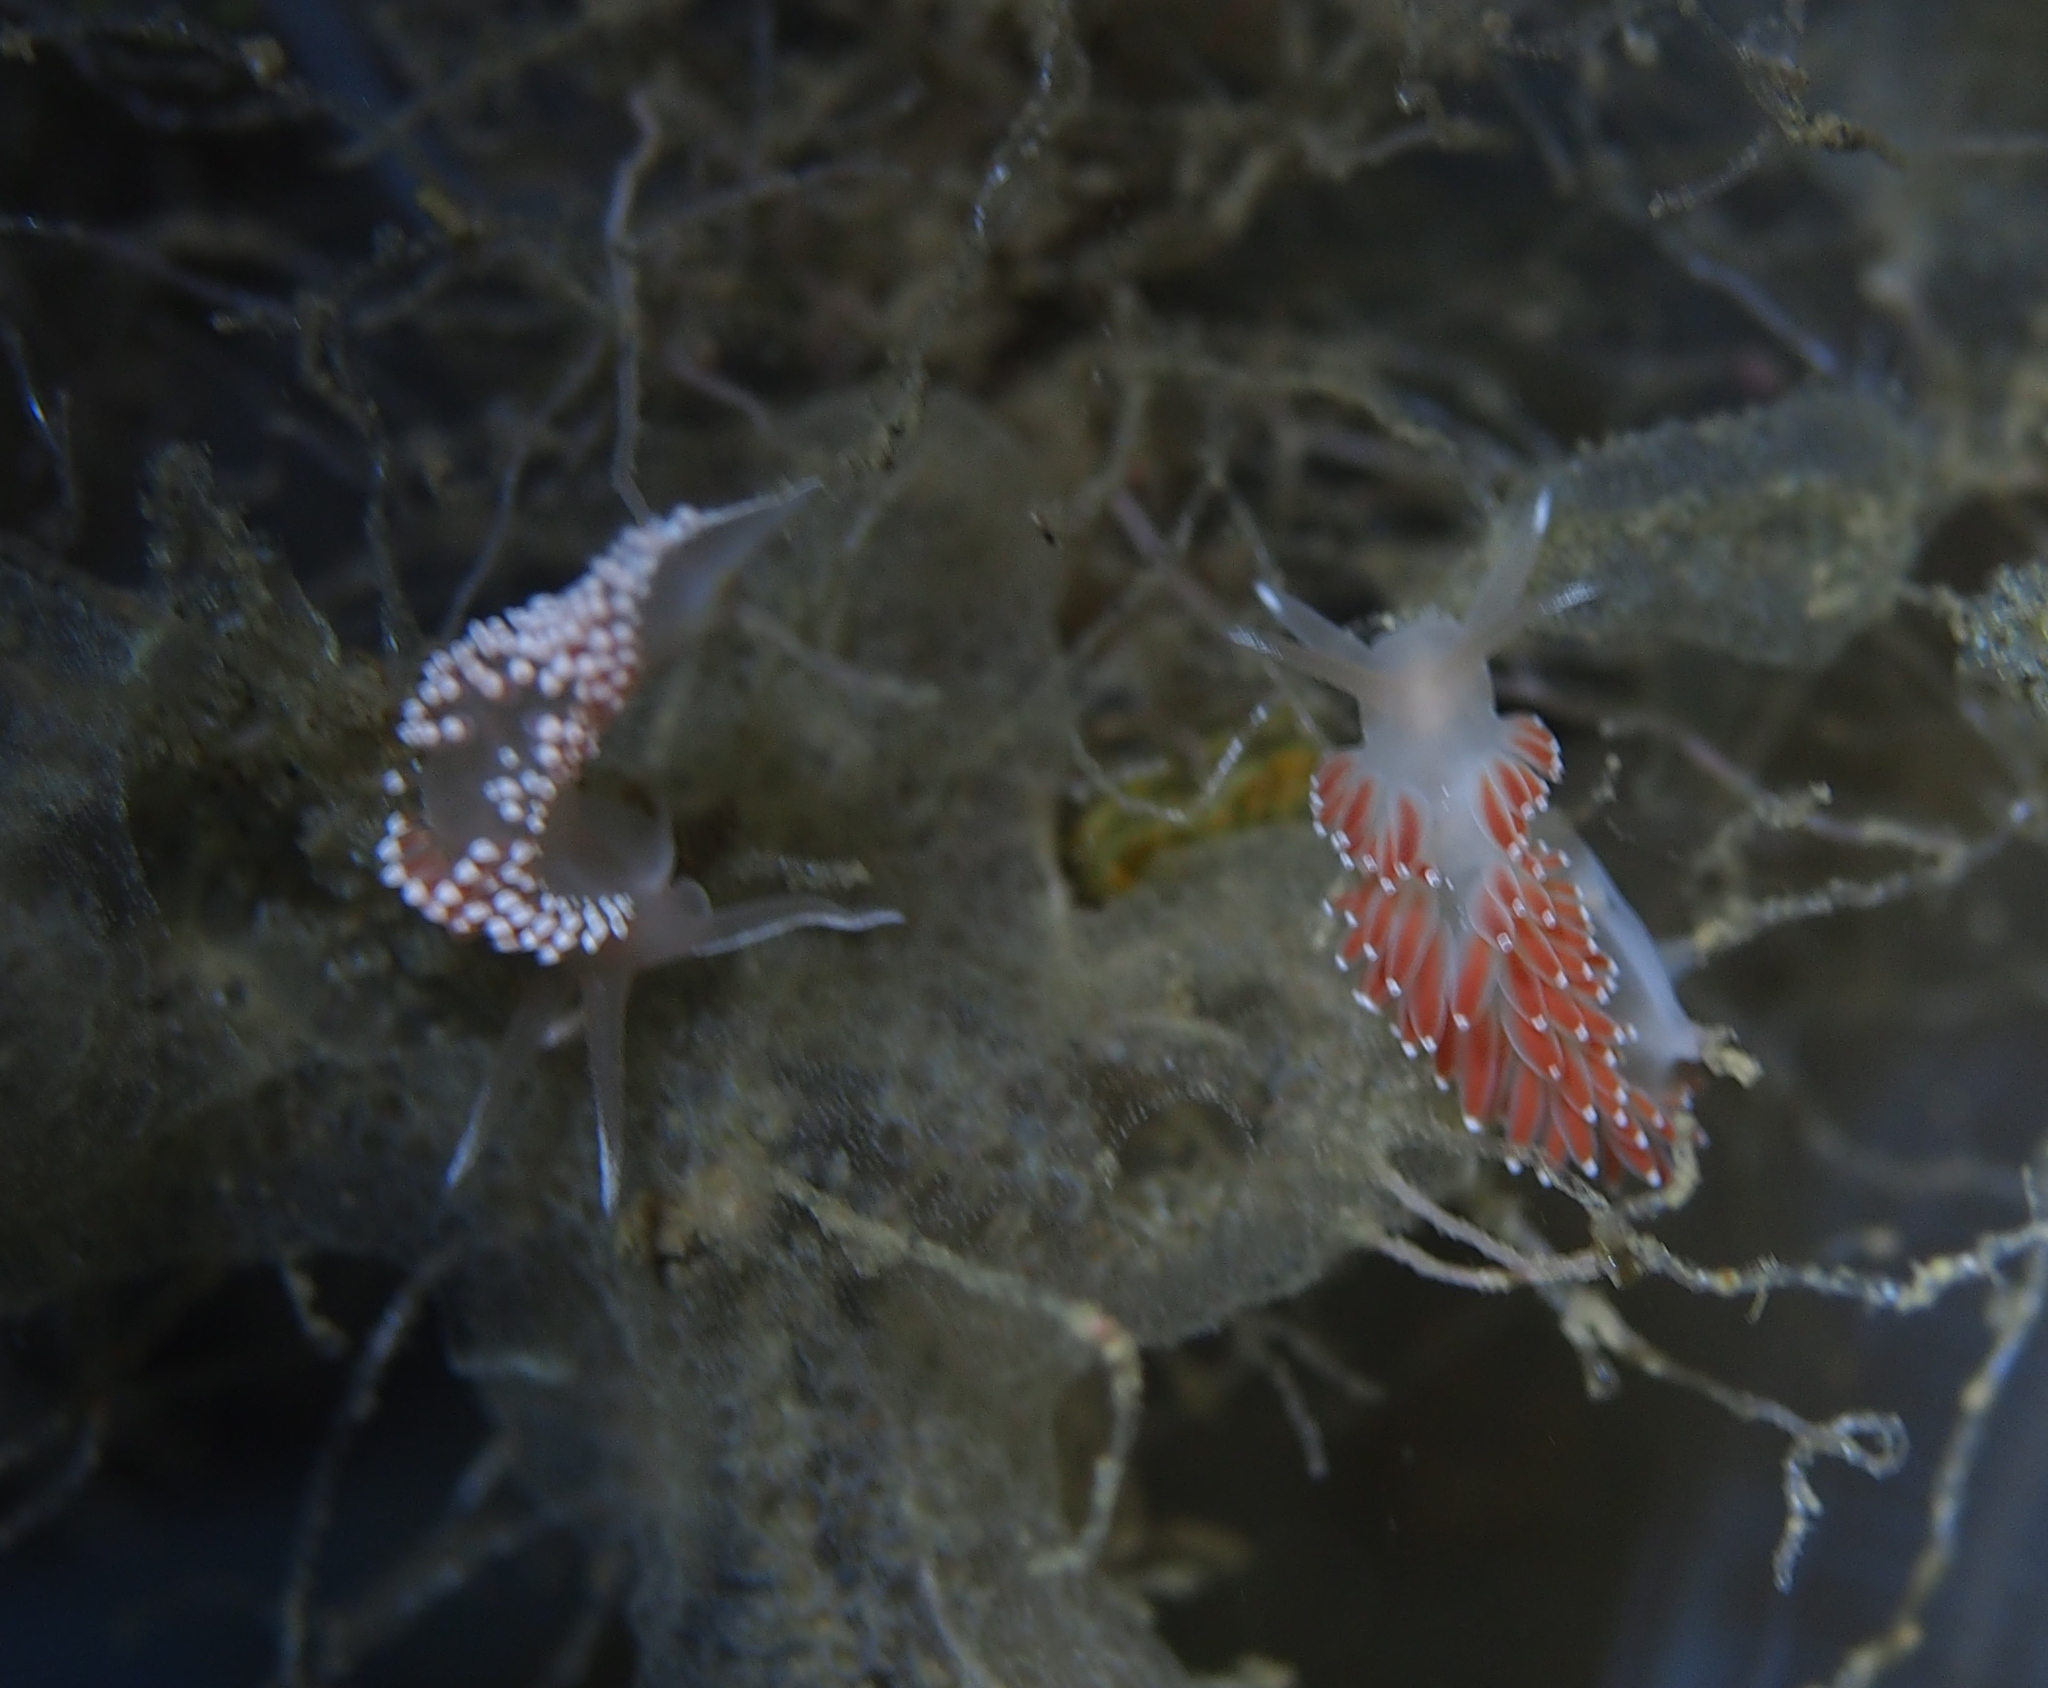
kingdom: Animalia
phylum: Mollusca
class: Gastropoda
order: Nudibranchia
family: Coryphellidae
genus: Coryphella
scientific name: Coryphella verrucosa
